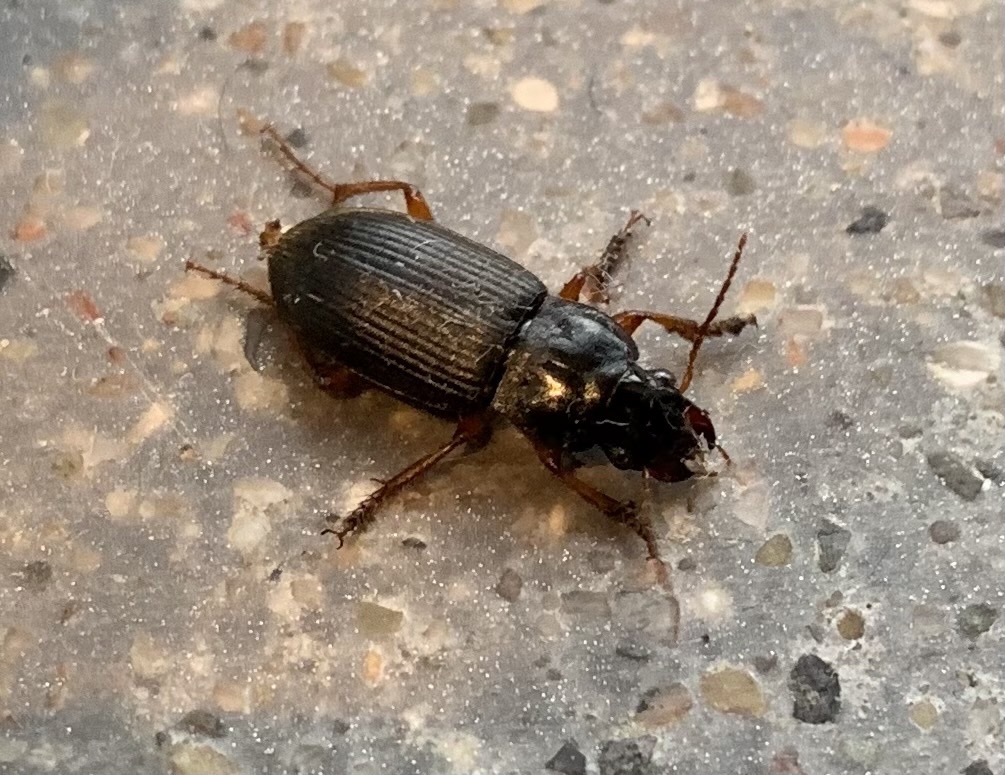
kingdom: Animalia
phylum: Arthropoda
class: Insecta
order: Coleoptera
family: Carabidae
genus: Harpalus
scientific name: Harpalus rufipes
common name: Strawberry harp ground beetle
